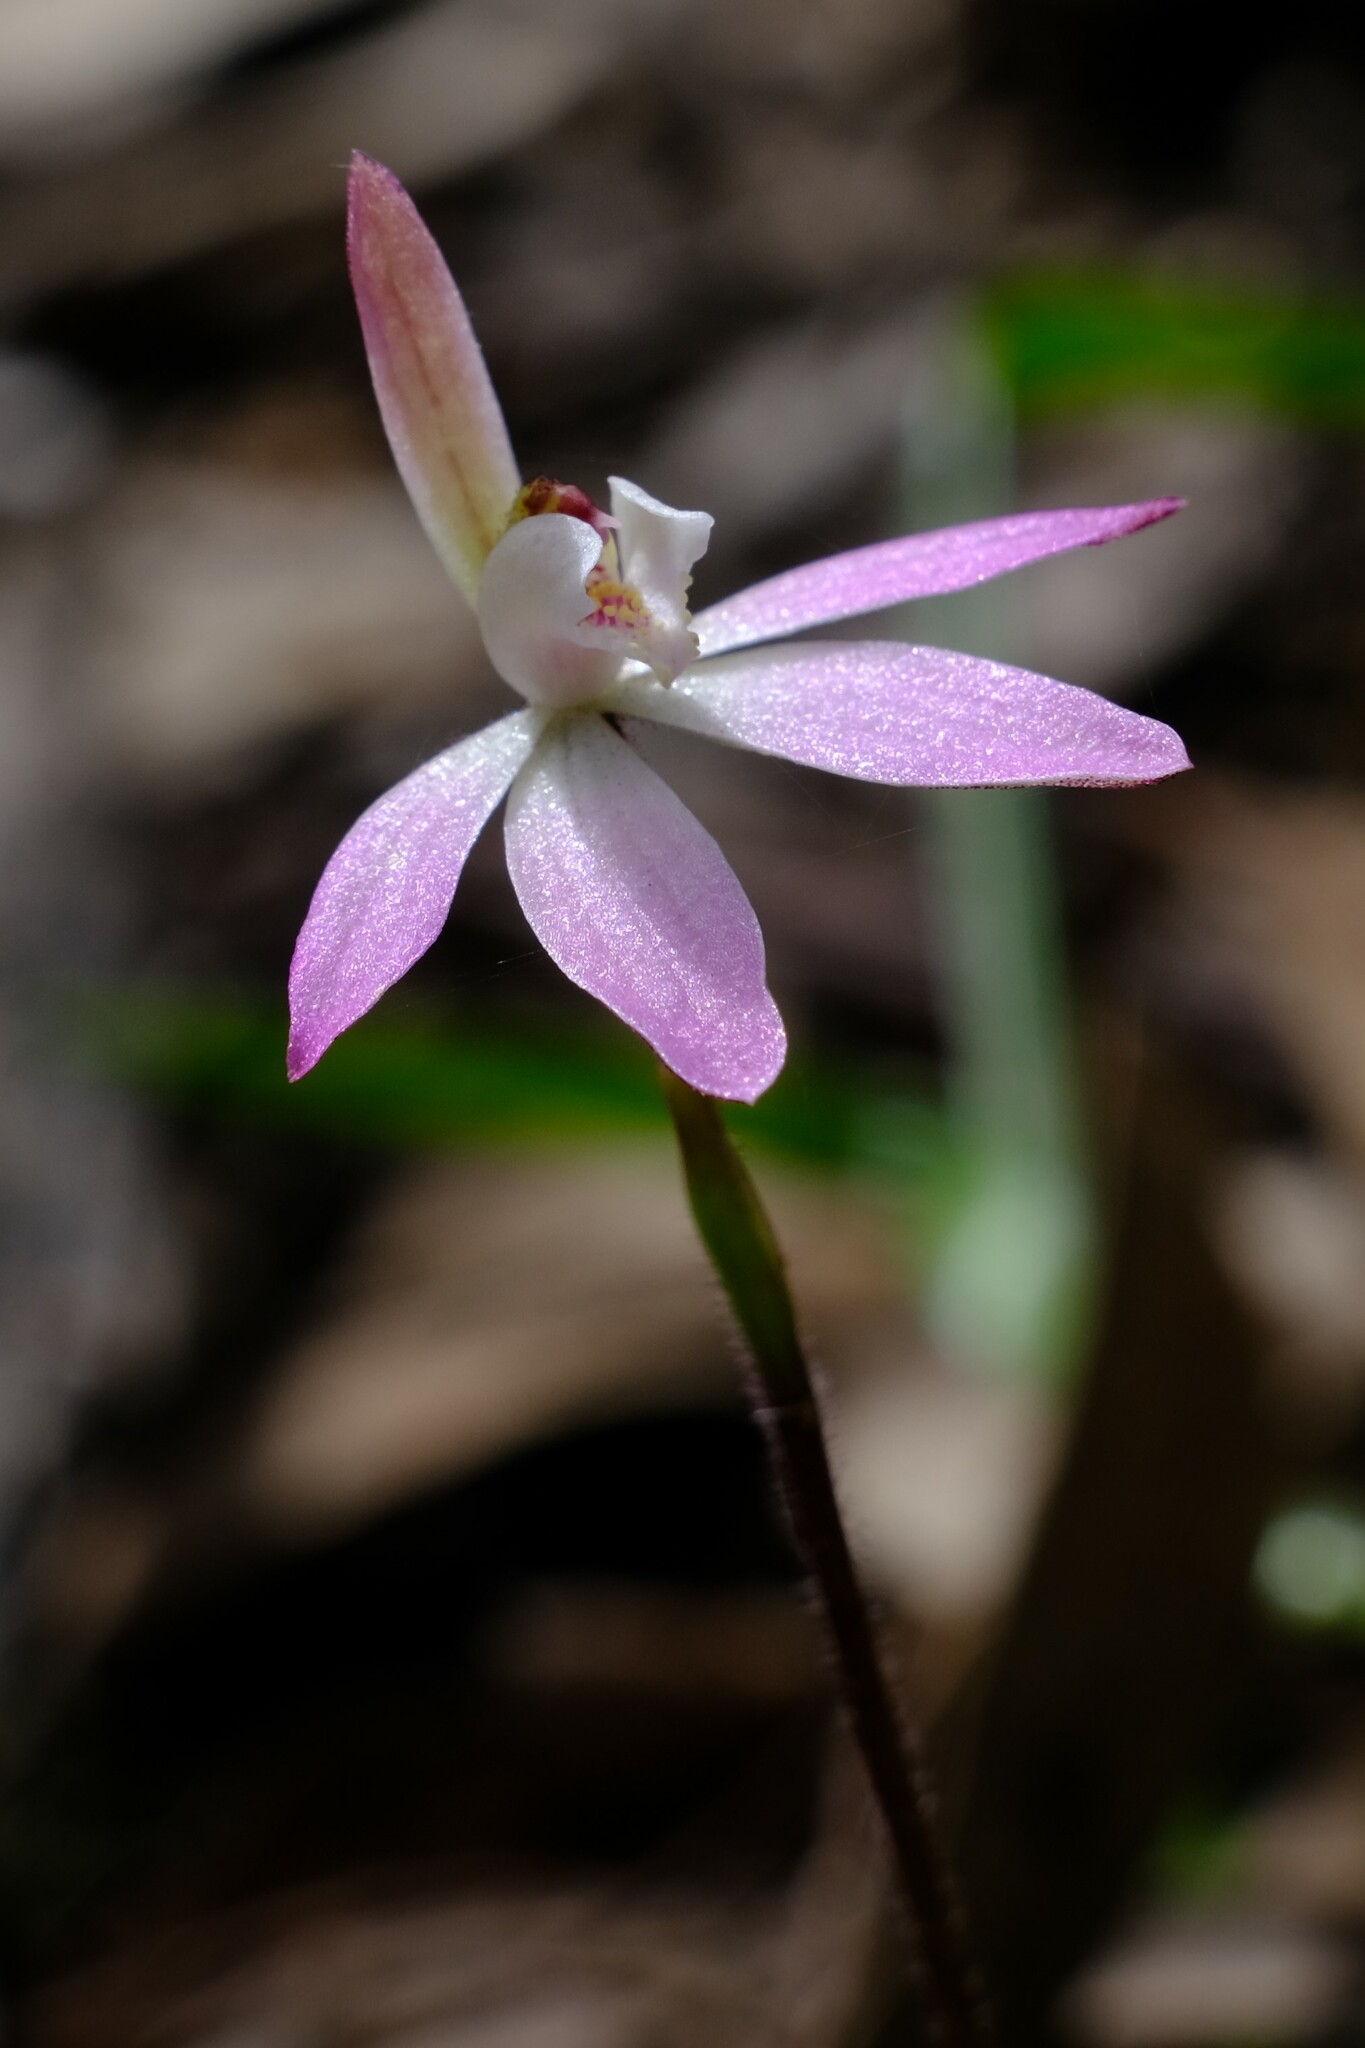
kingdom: Plantae
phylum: Tracheophyta
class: Liliopsida
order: Asparagales
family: Orchidaceae
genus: Caladenia
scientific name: Caladenia fuscata
